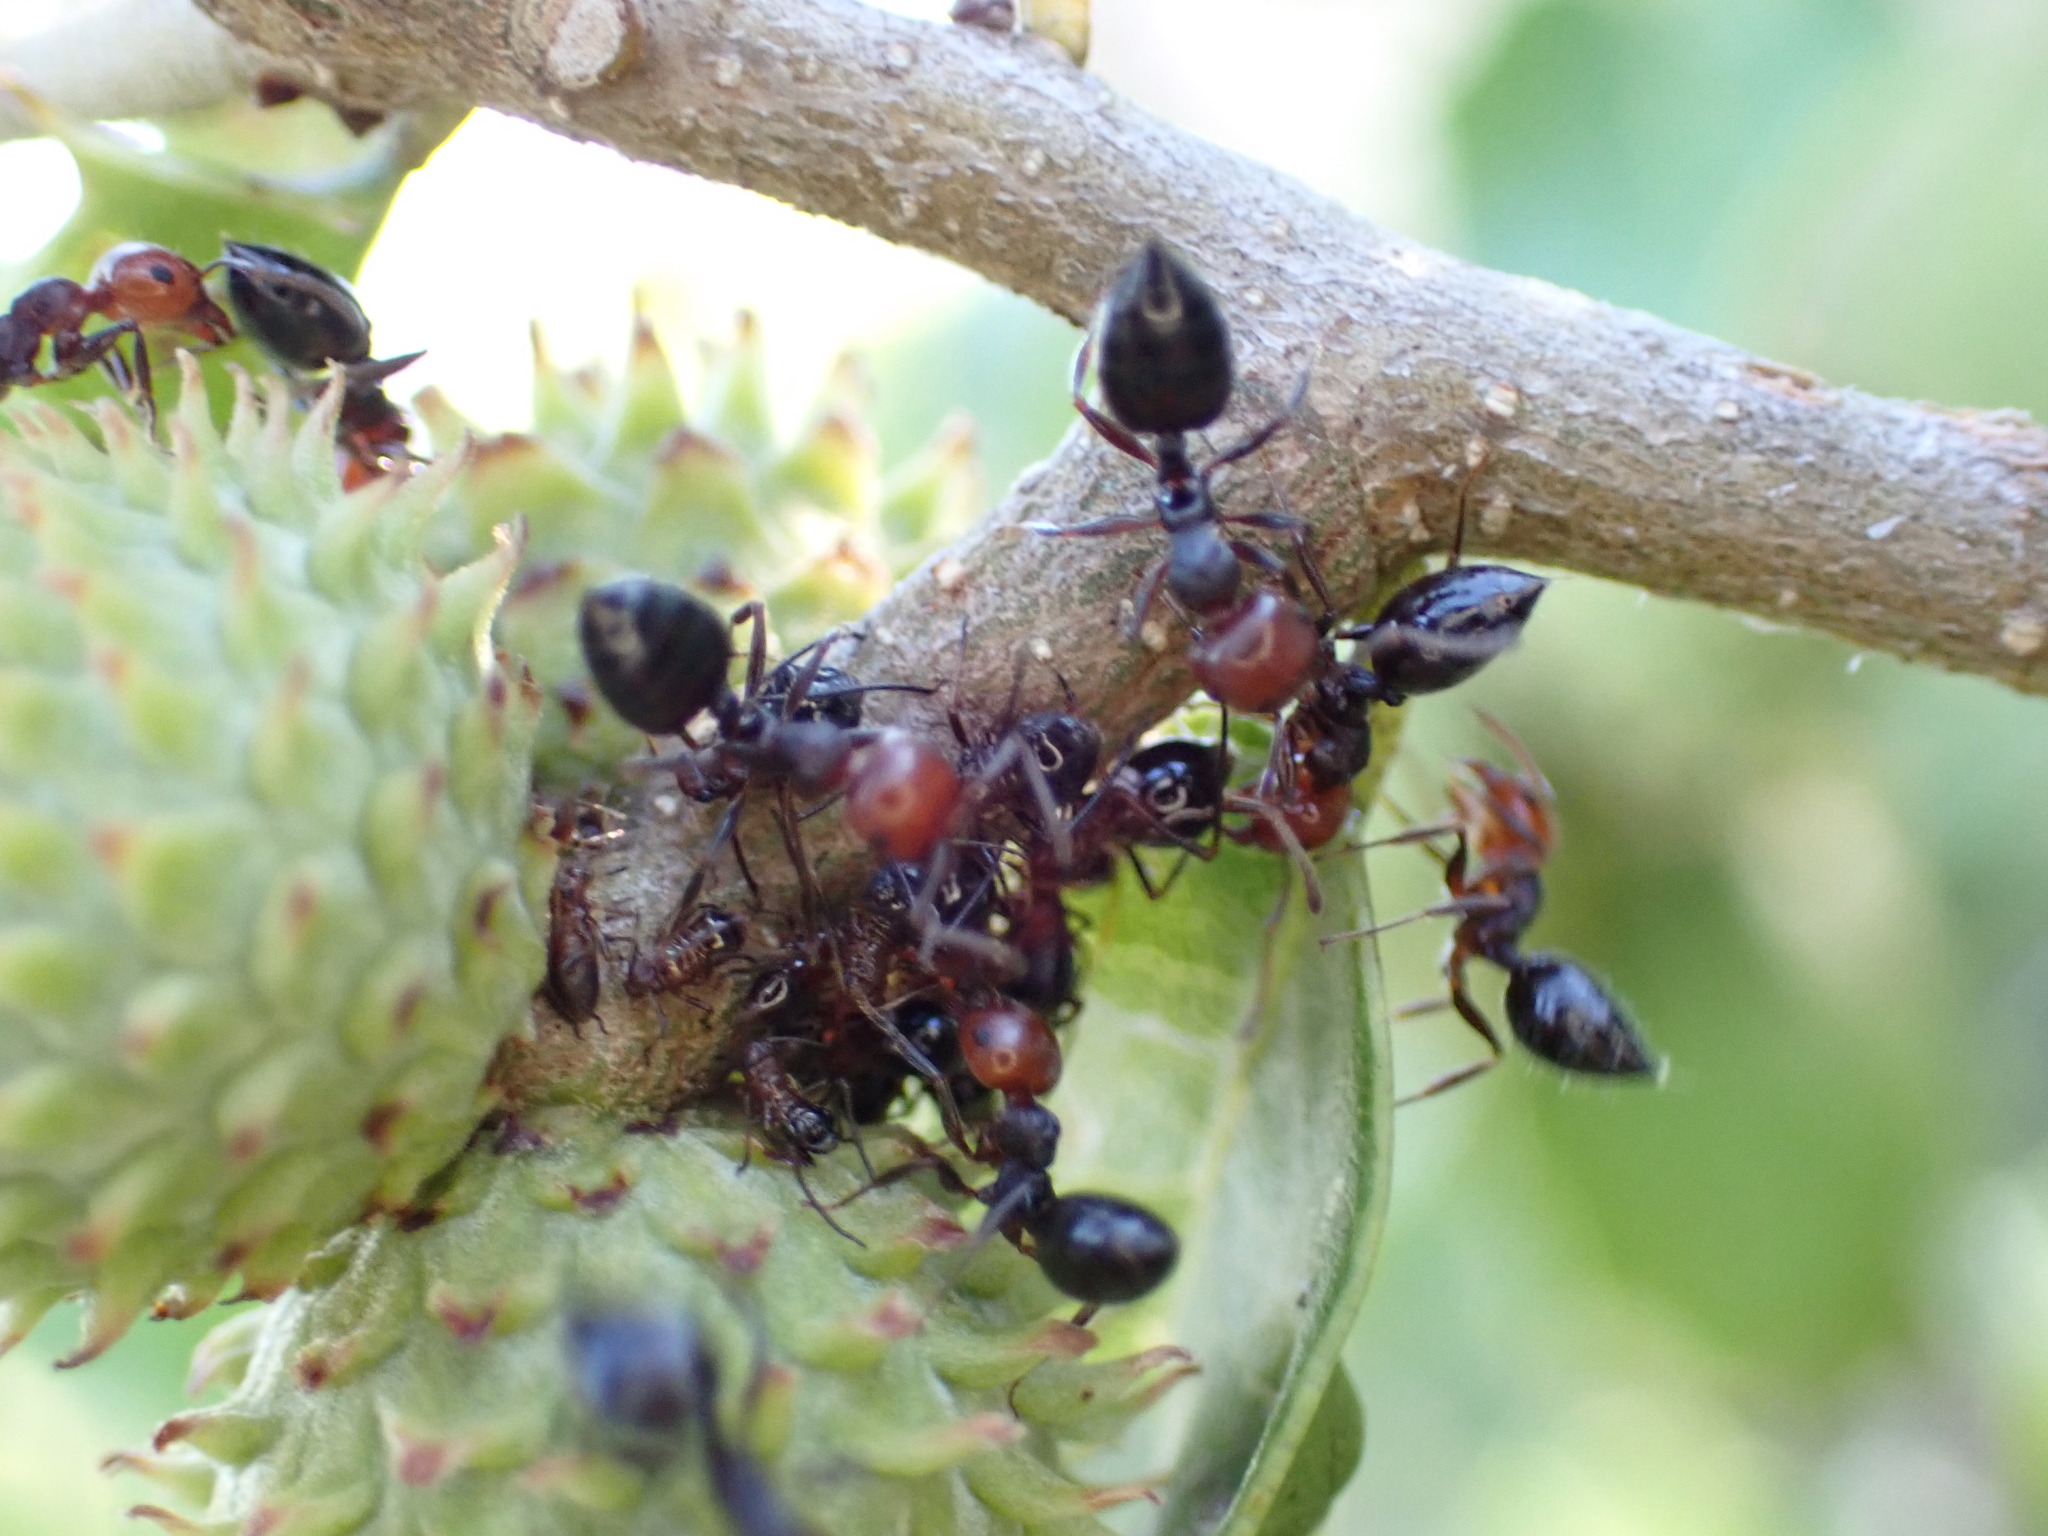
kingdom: Animalia
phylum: Arthropoda
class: Insecta
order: Hymenoptera
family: Formicidae
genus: Crematogaster
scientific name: Crematogaster scutellaris
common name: Fourmi du liège
